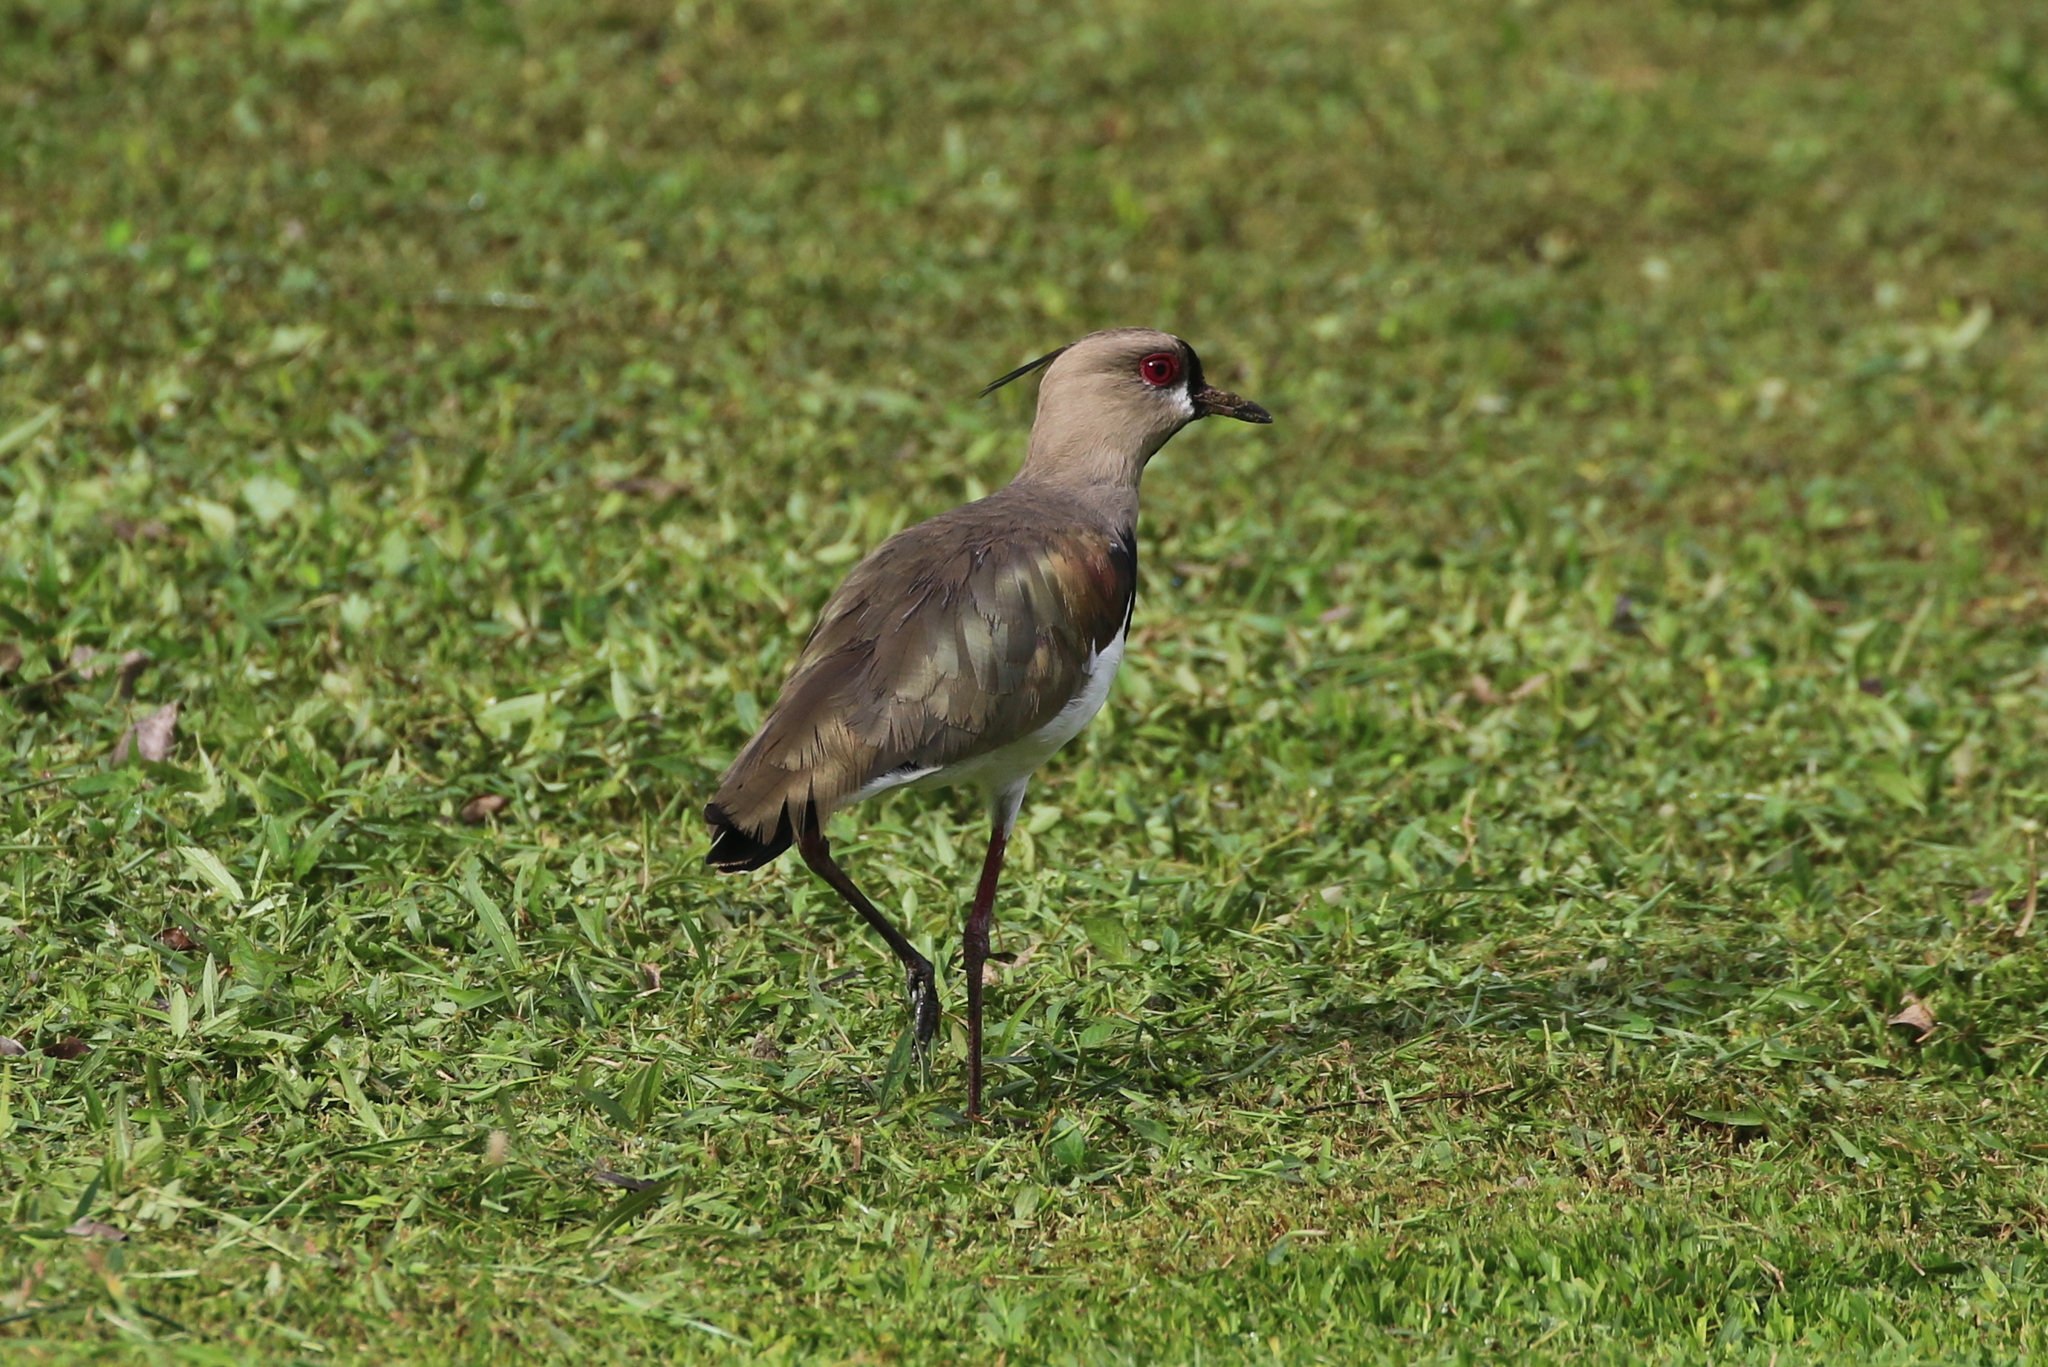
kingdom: Animalia
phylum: Chordata
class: Aves
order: Charadriiformes
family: Charadriidae
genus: Vanellus
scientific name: Vanellus chilensis
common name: Southern lapwing
